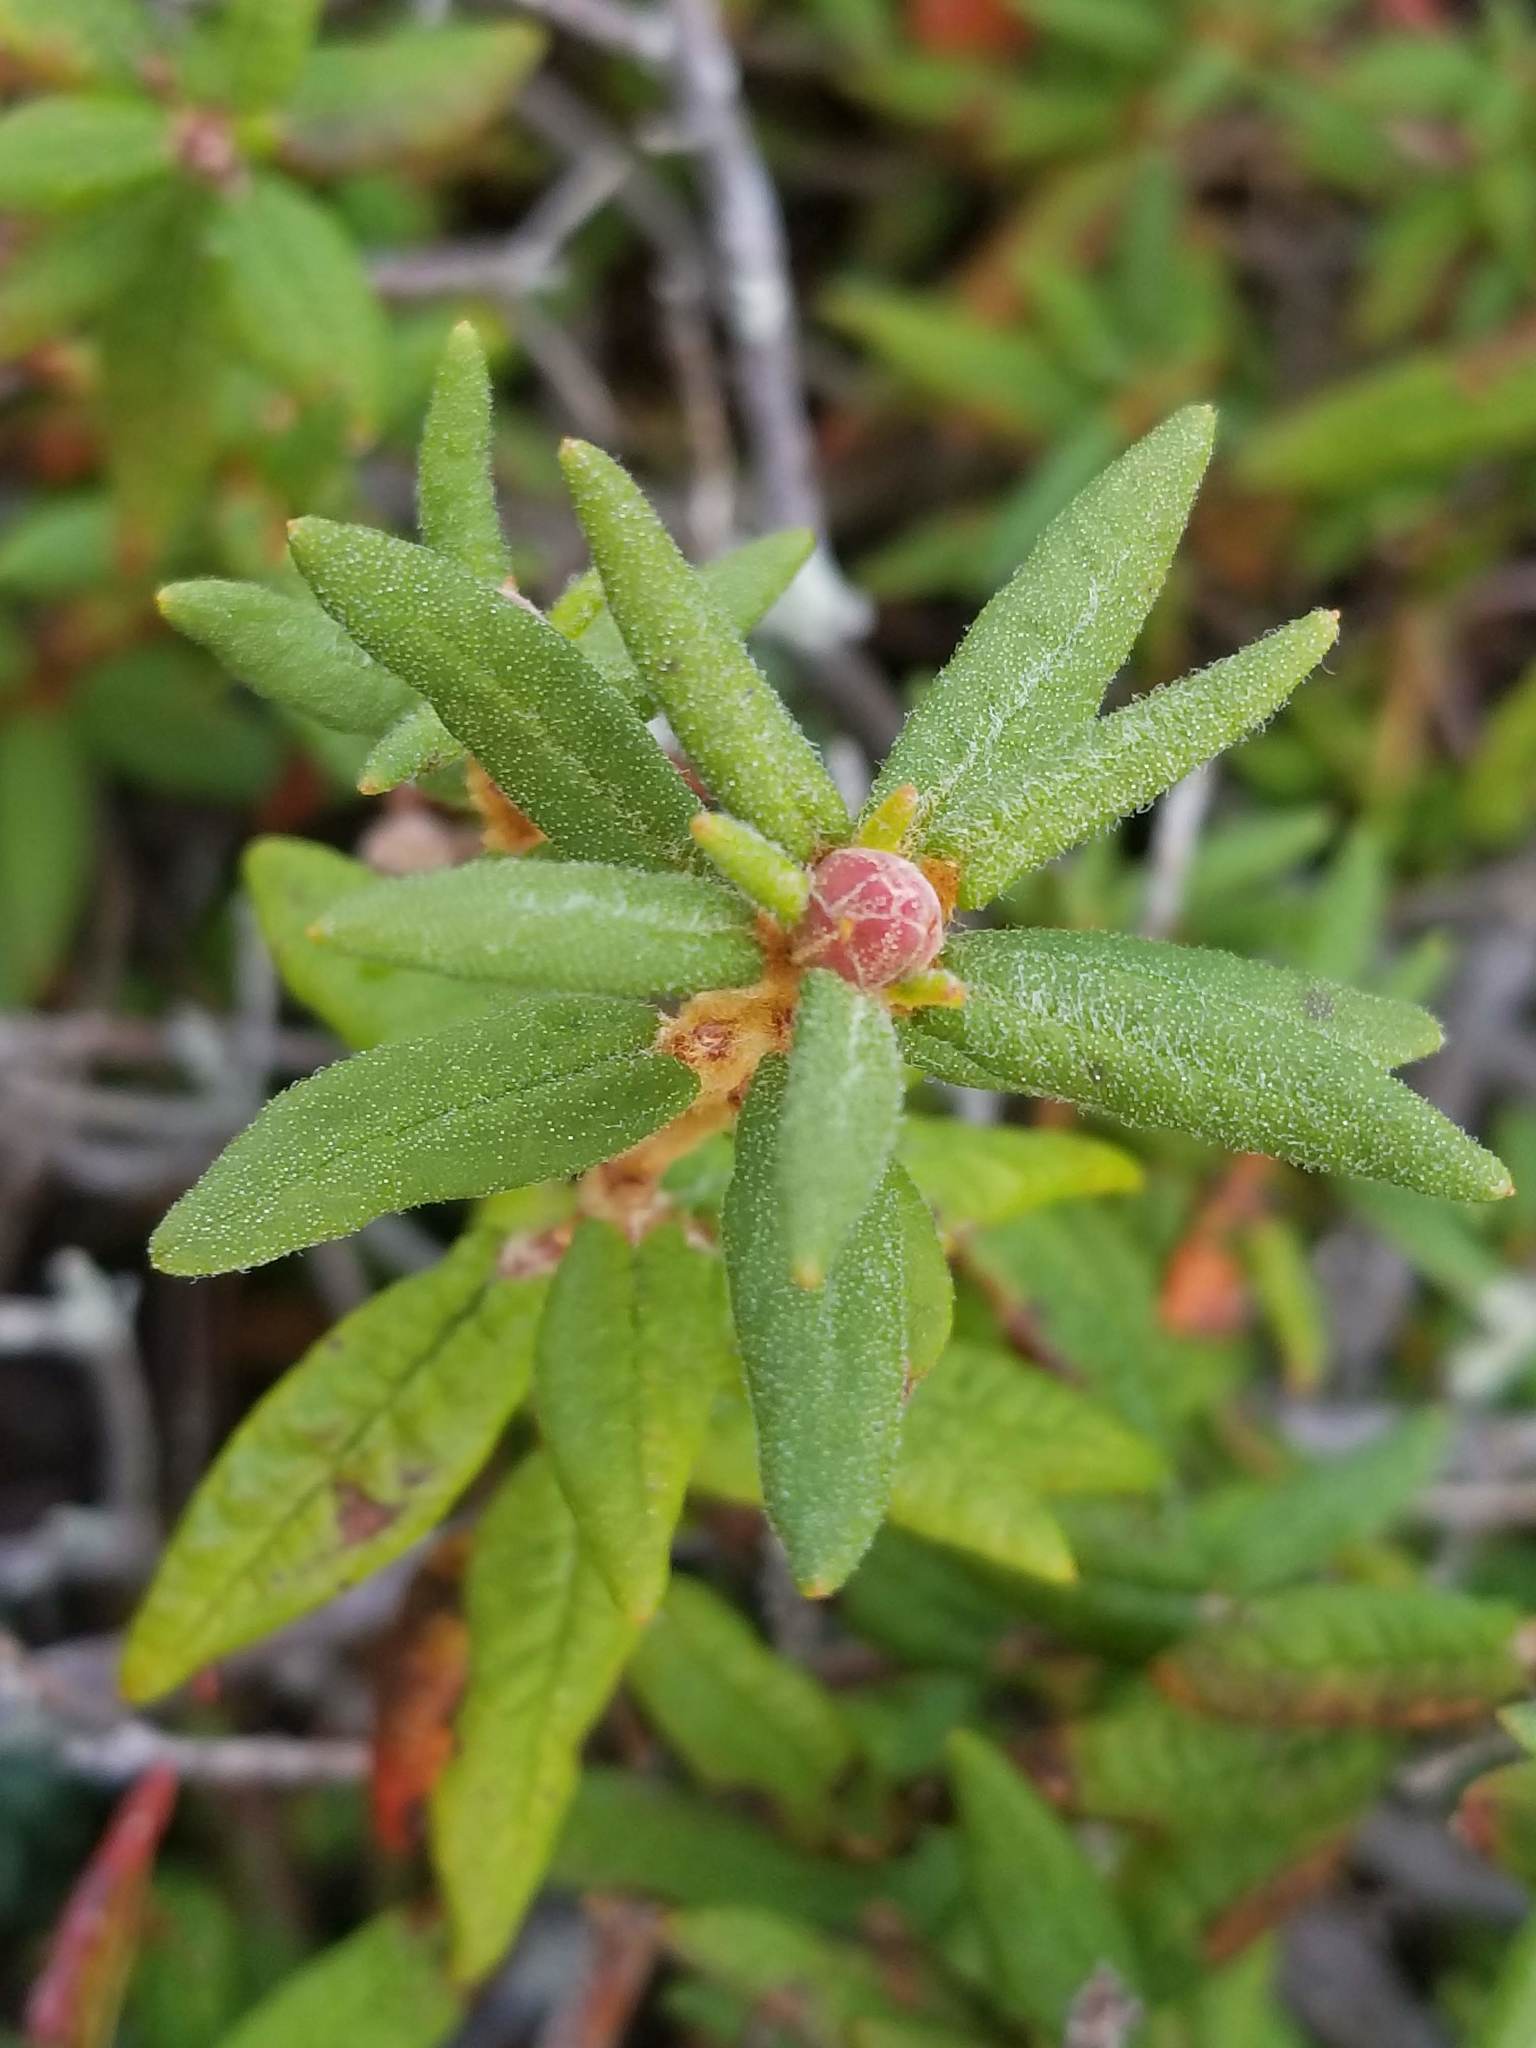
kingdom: Plantae
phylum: Tracheophyta
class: Magnoliopsida
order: Ericales
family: Ericaceae
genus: Rhododendron
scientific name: Rhododendron groenlandicum
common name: Bog labrador tea
